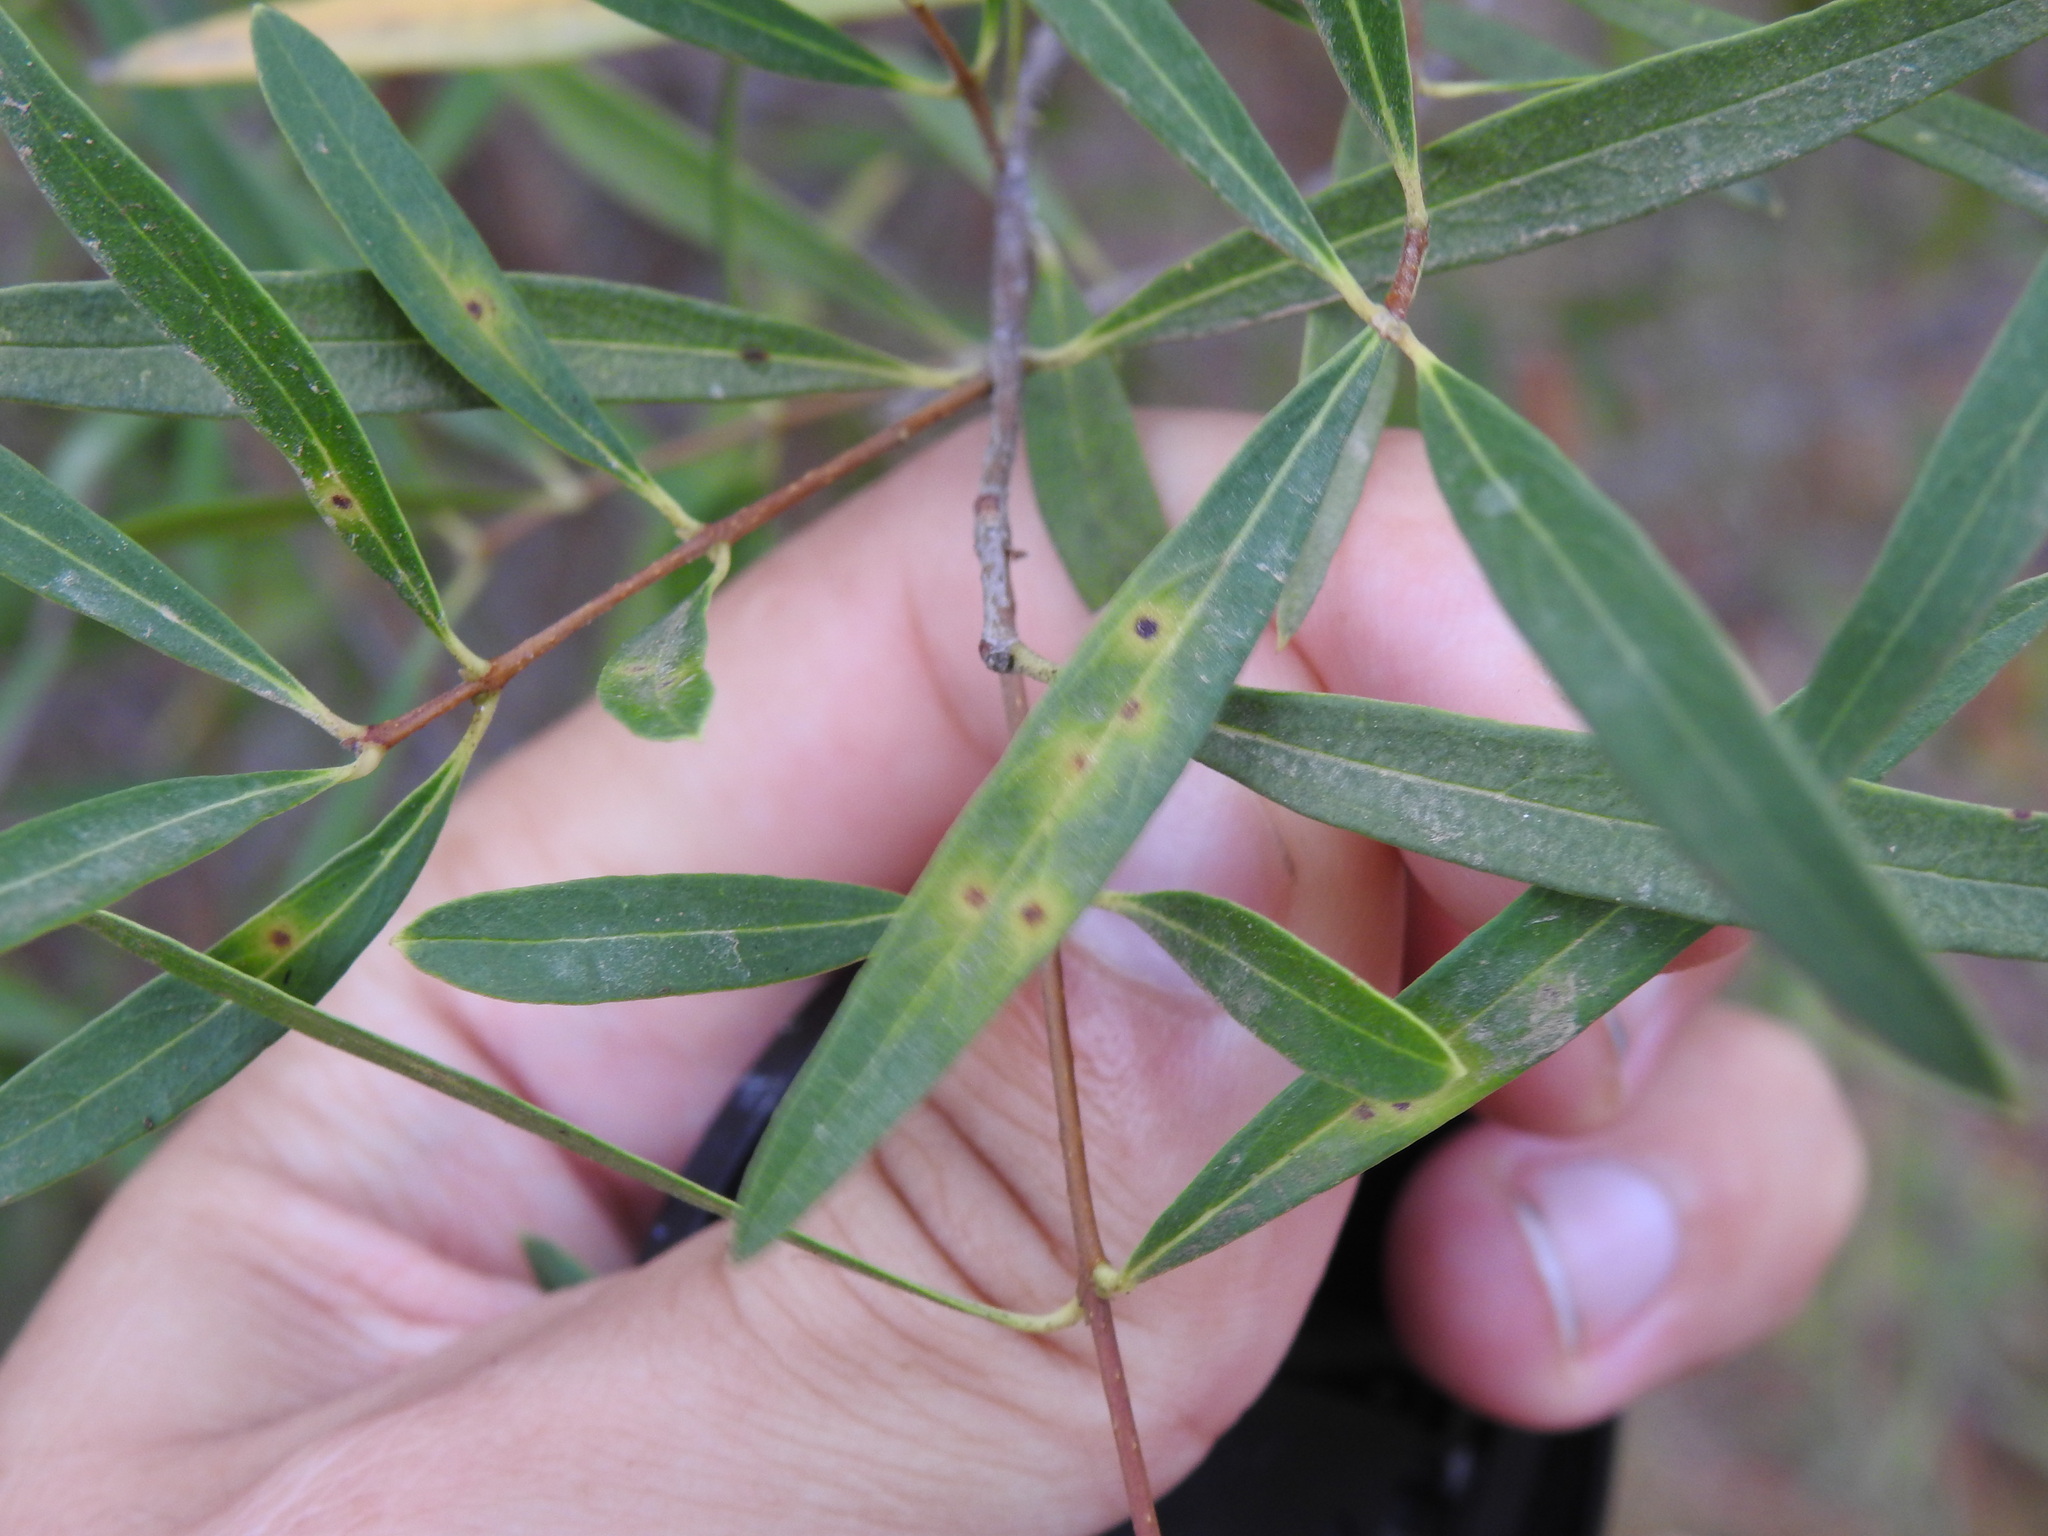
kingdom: Animalia
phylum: Arthropoda
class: Insecta
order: Diptera
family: Cecidomyiidae
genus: Braueriella
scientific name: Braueriella phillyreae
